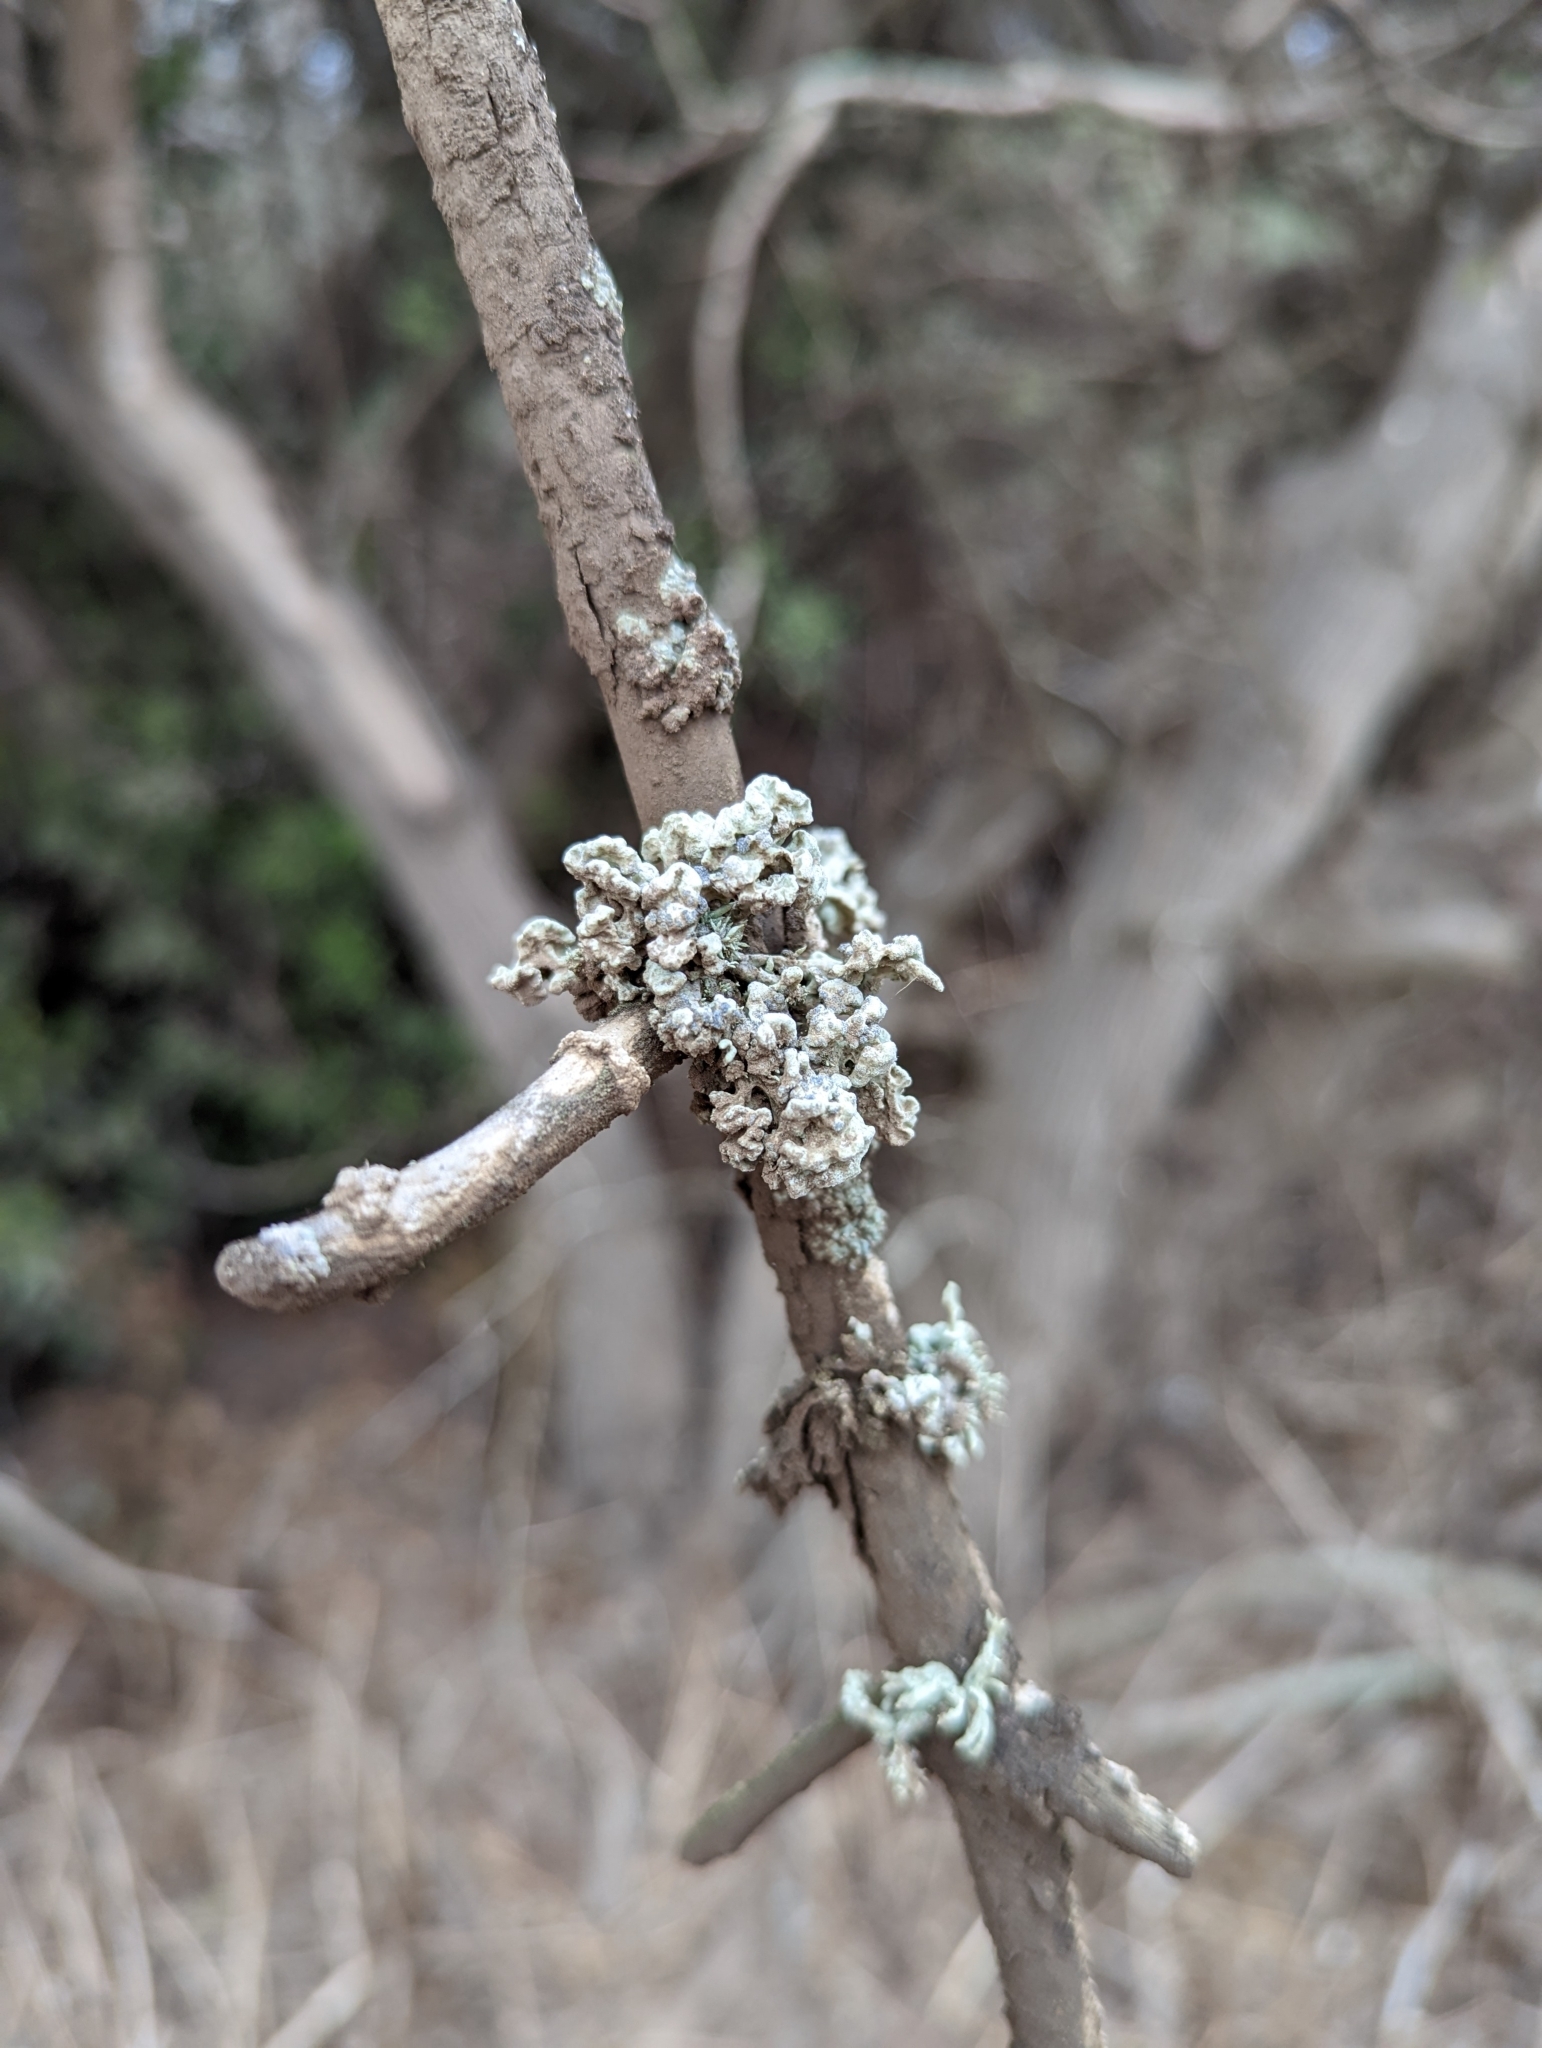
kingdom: Fungi
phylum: Ascomycota
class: Lecanoromycetes
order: Lecanorales
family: Ramalinaceae
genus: Niebla
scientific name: Niebla cephalota
